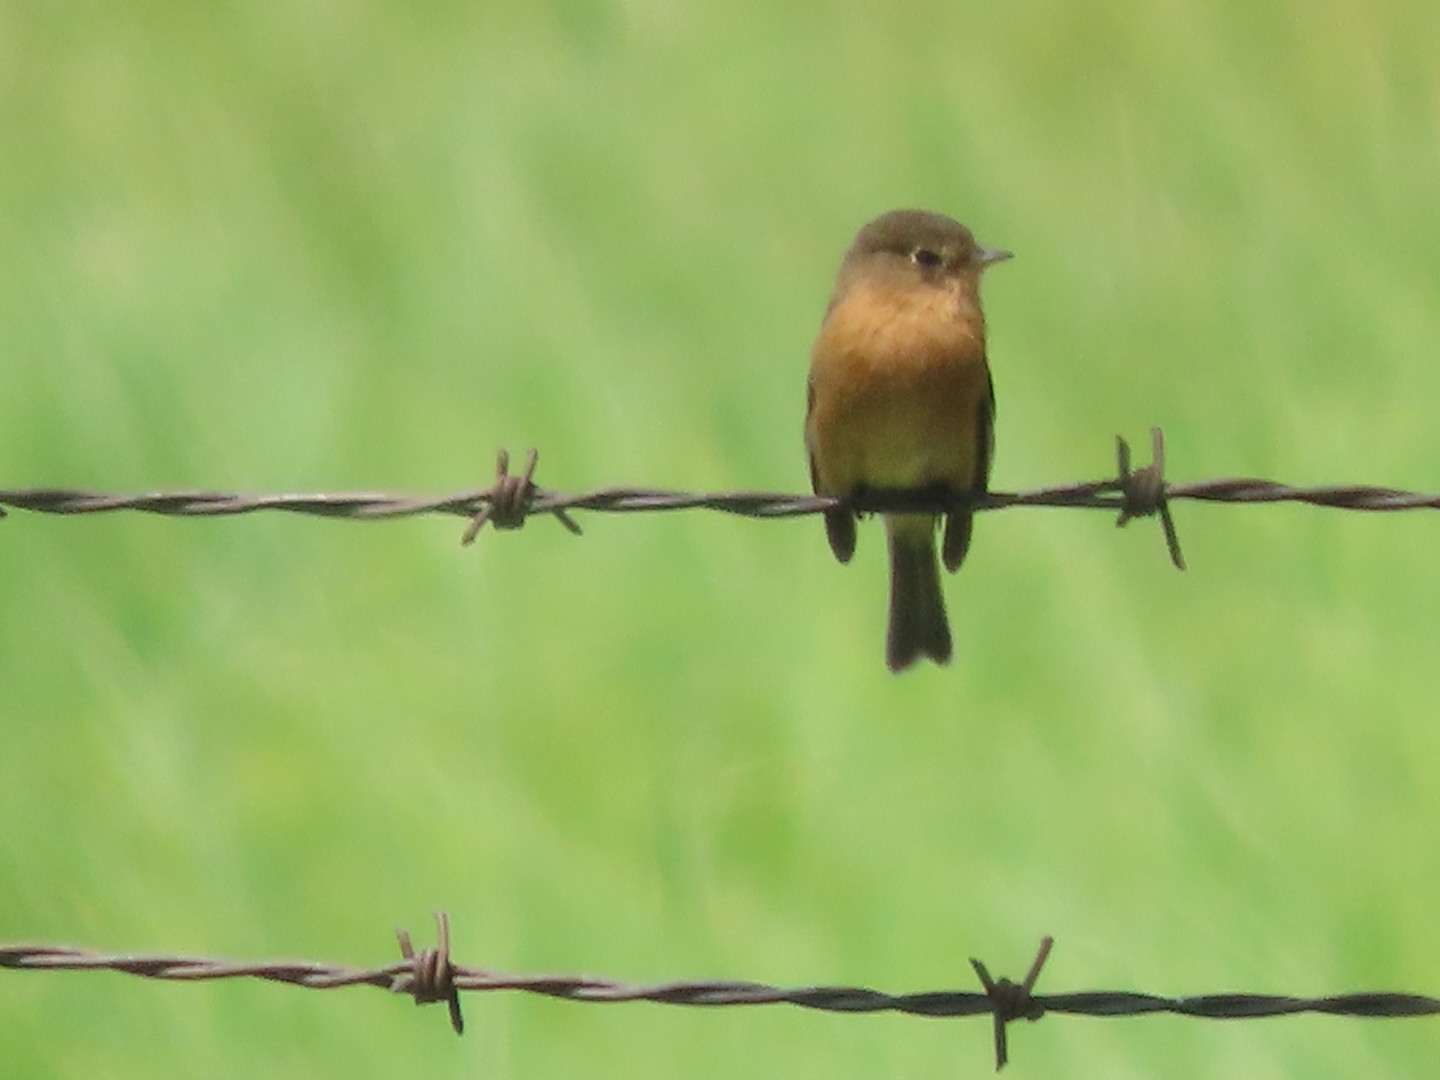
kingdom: Animalia
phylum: Chordata
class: Aves
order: Passeriformes
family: Tyrannidae
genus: Empidonax
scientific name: Empidonax fulvifrons
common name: Buff-breasted flycatcher
